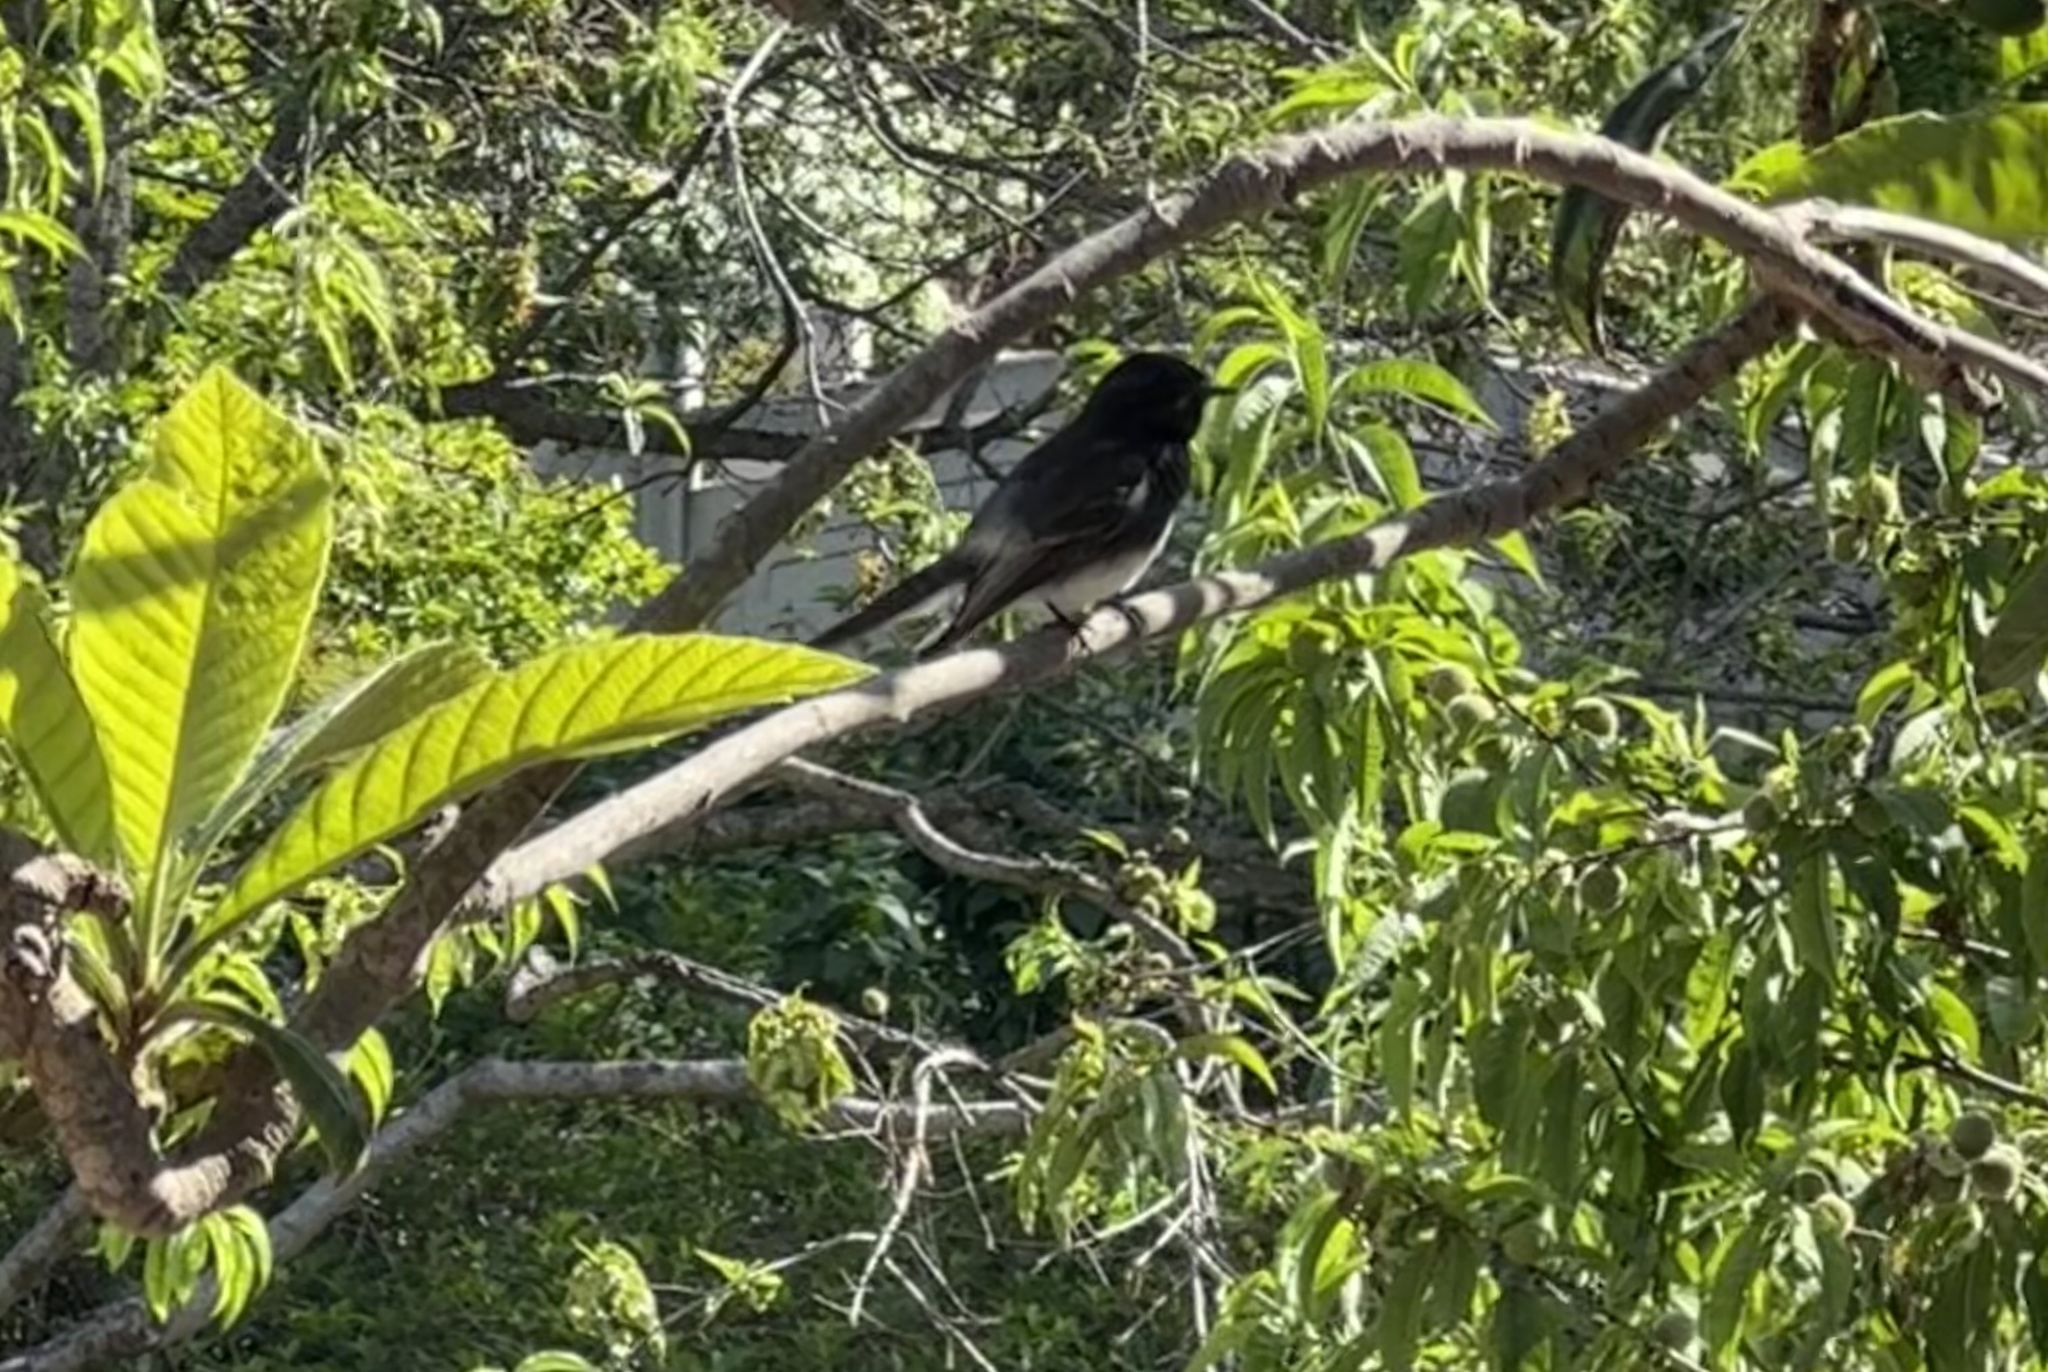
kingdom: Animalia
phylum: Chordata
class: Aves
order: Passeriformes
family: Tyrannidae
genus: Sayornis
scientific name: Sayornis nigricans
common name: Black phoebe
